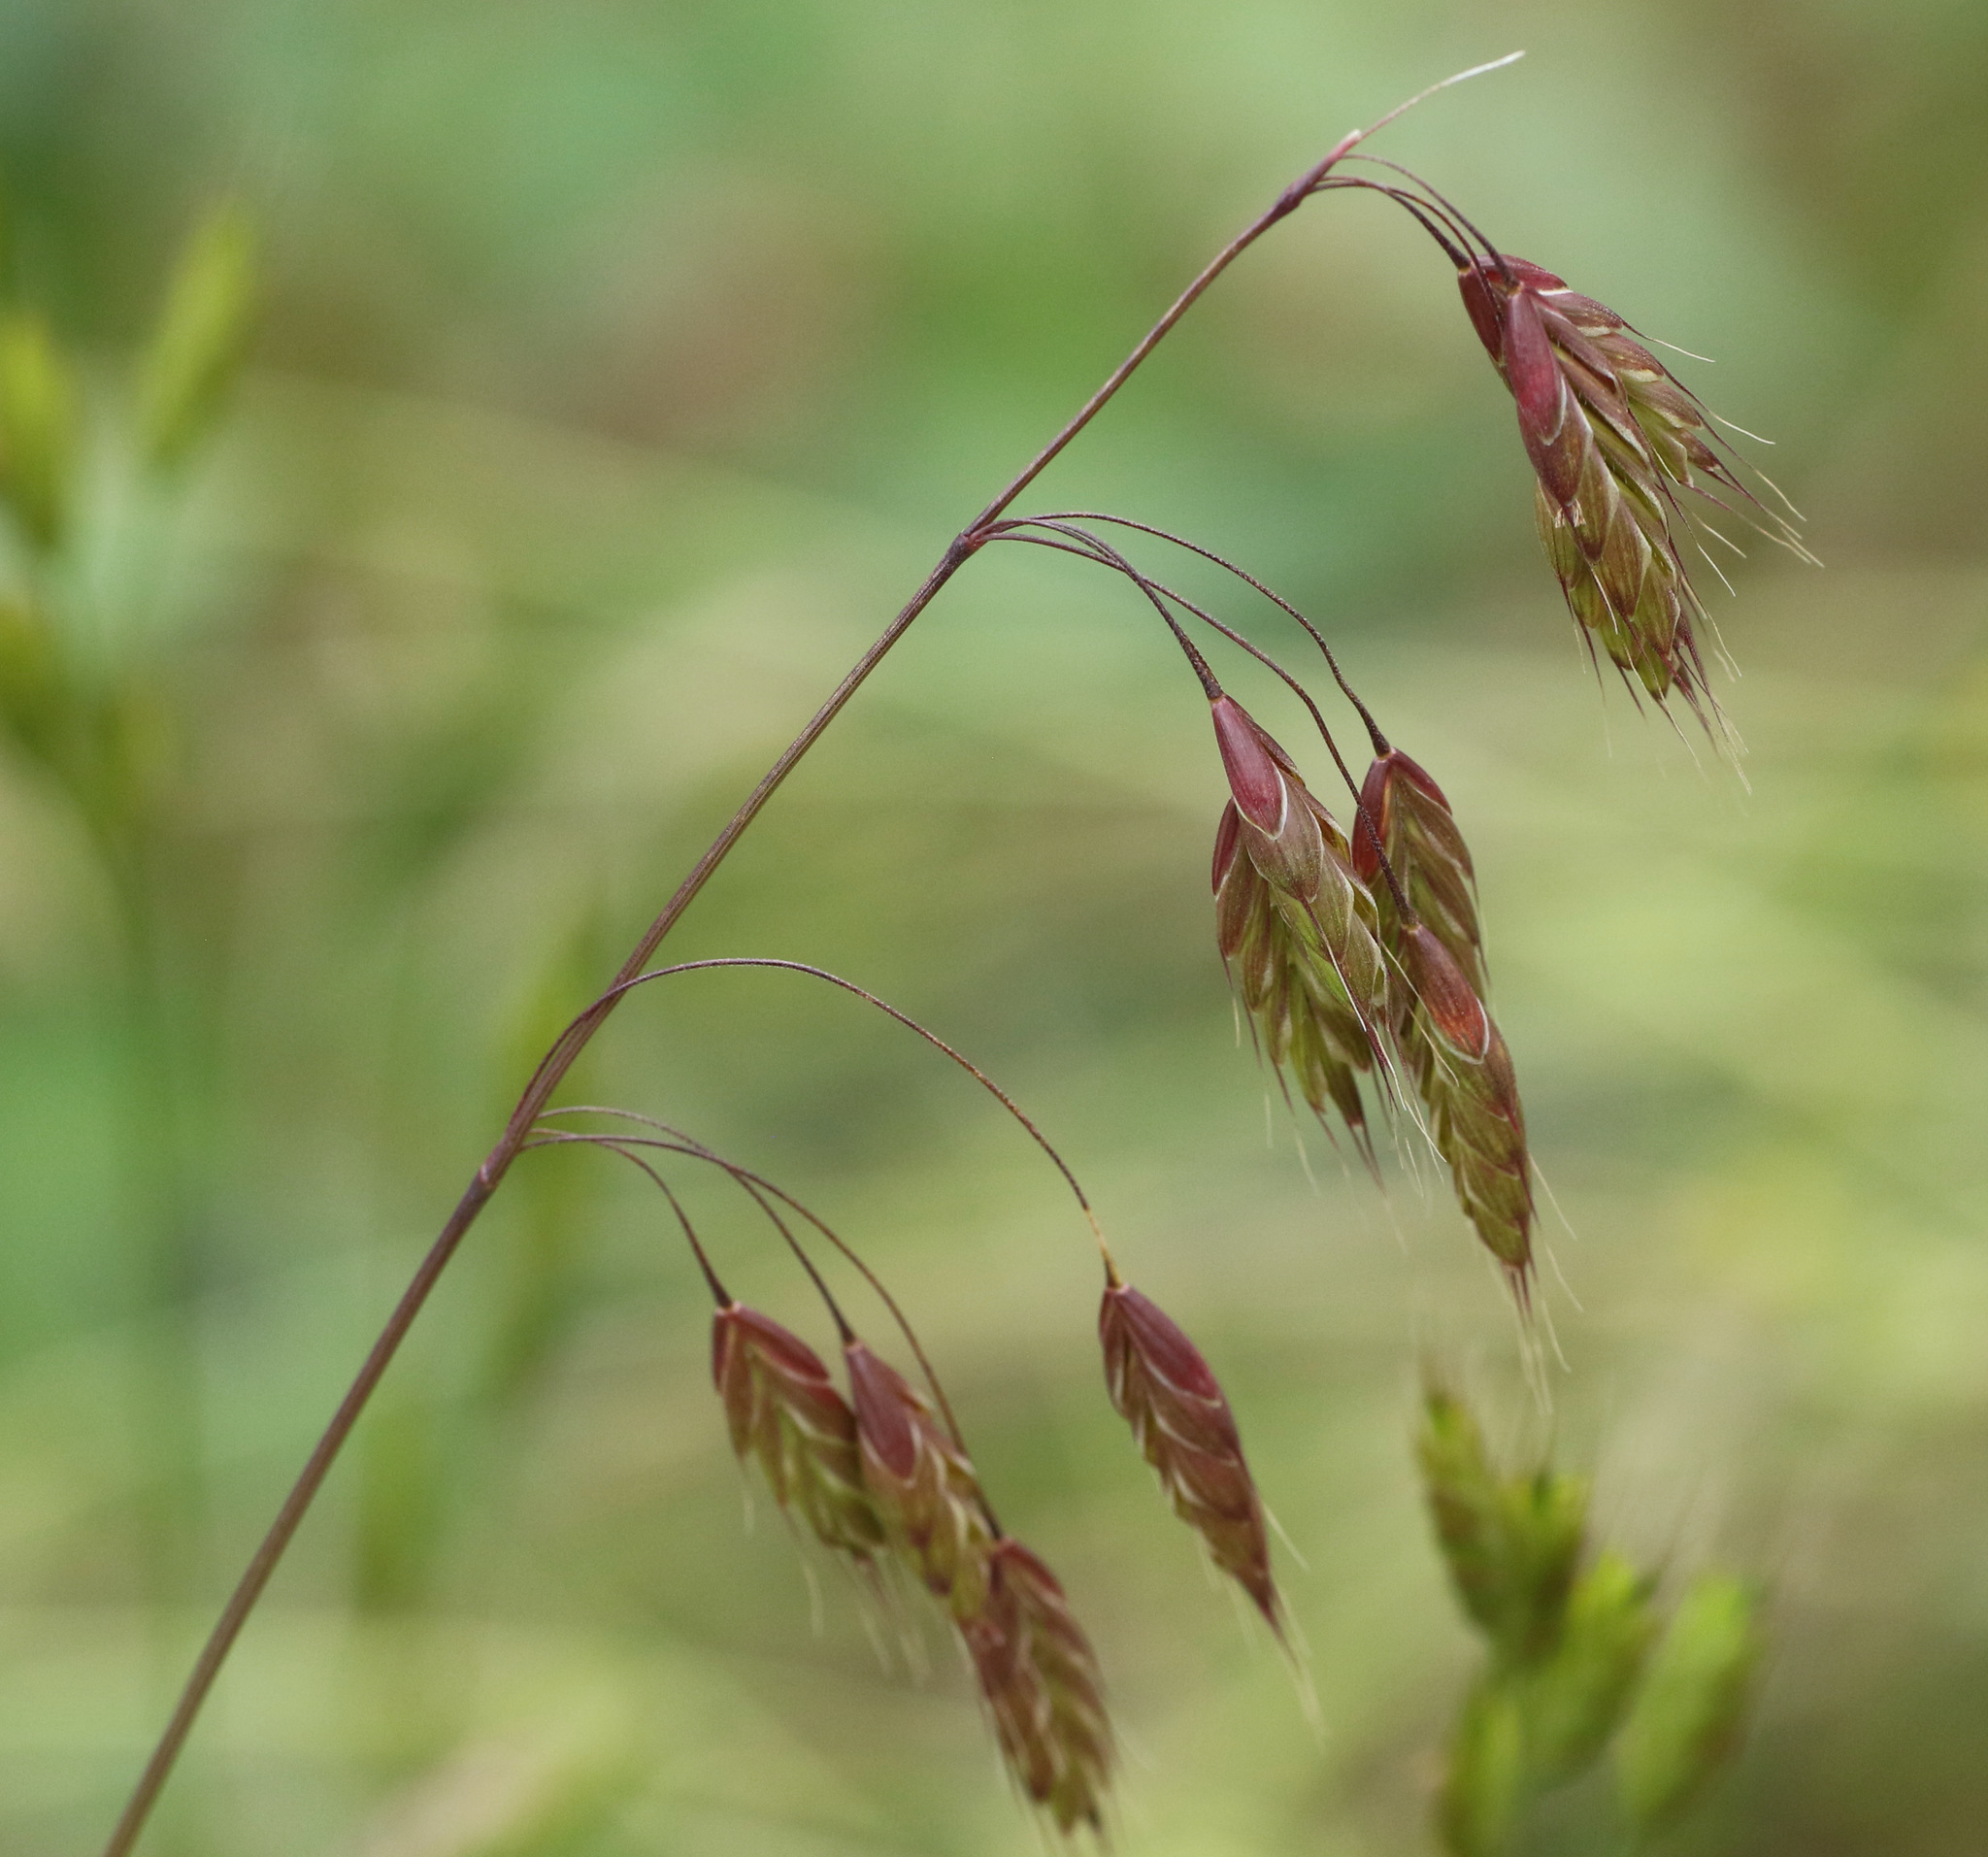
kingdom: Plantae
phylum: Tracheophyta
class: Liliopsida
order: Poales
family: Poaceae
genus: Bromus
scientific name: Bromus secalinus
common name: Rye brome
